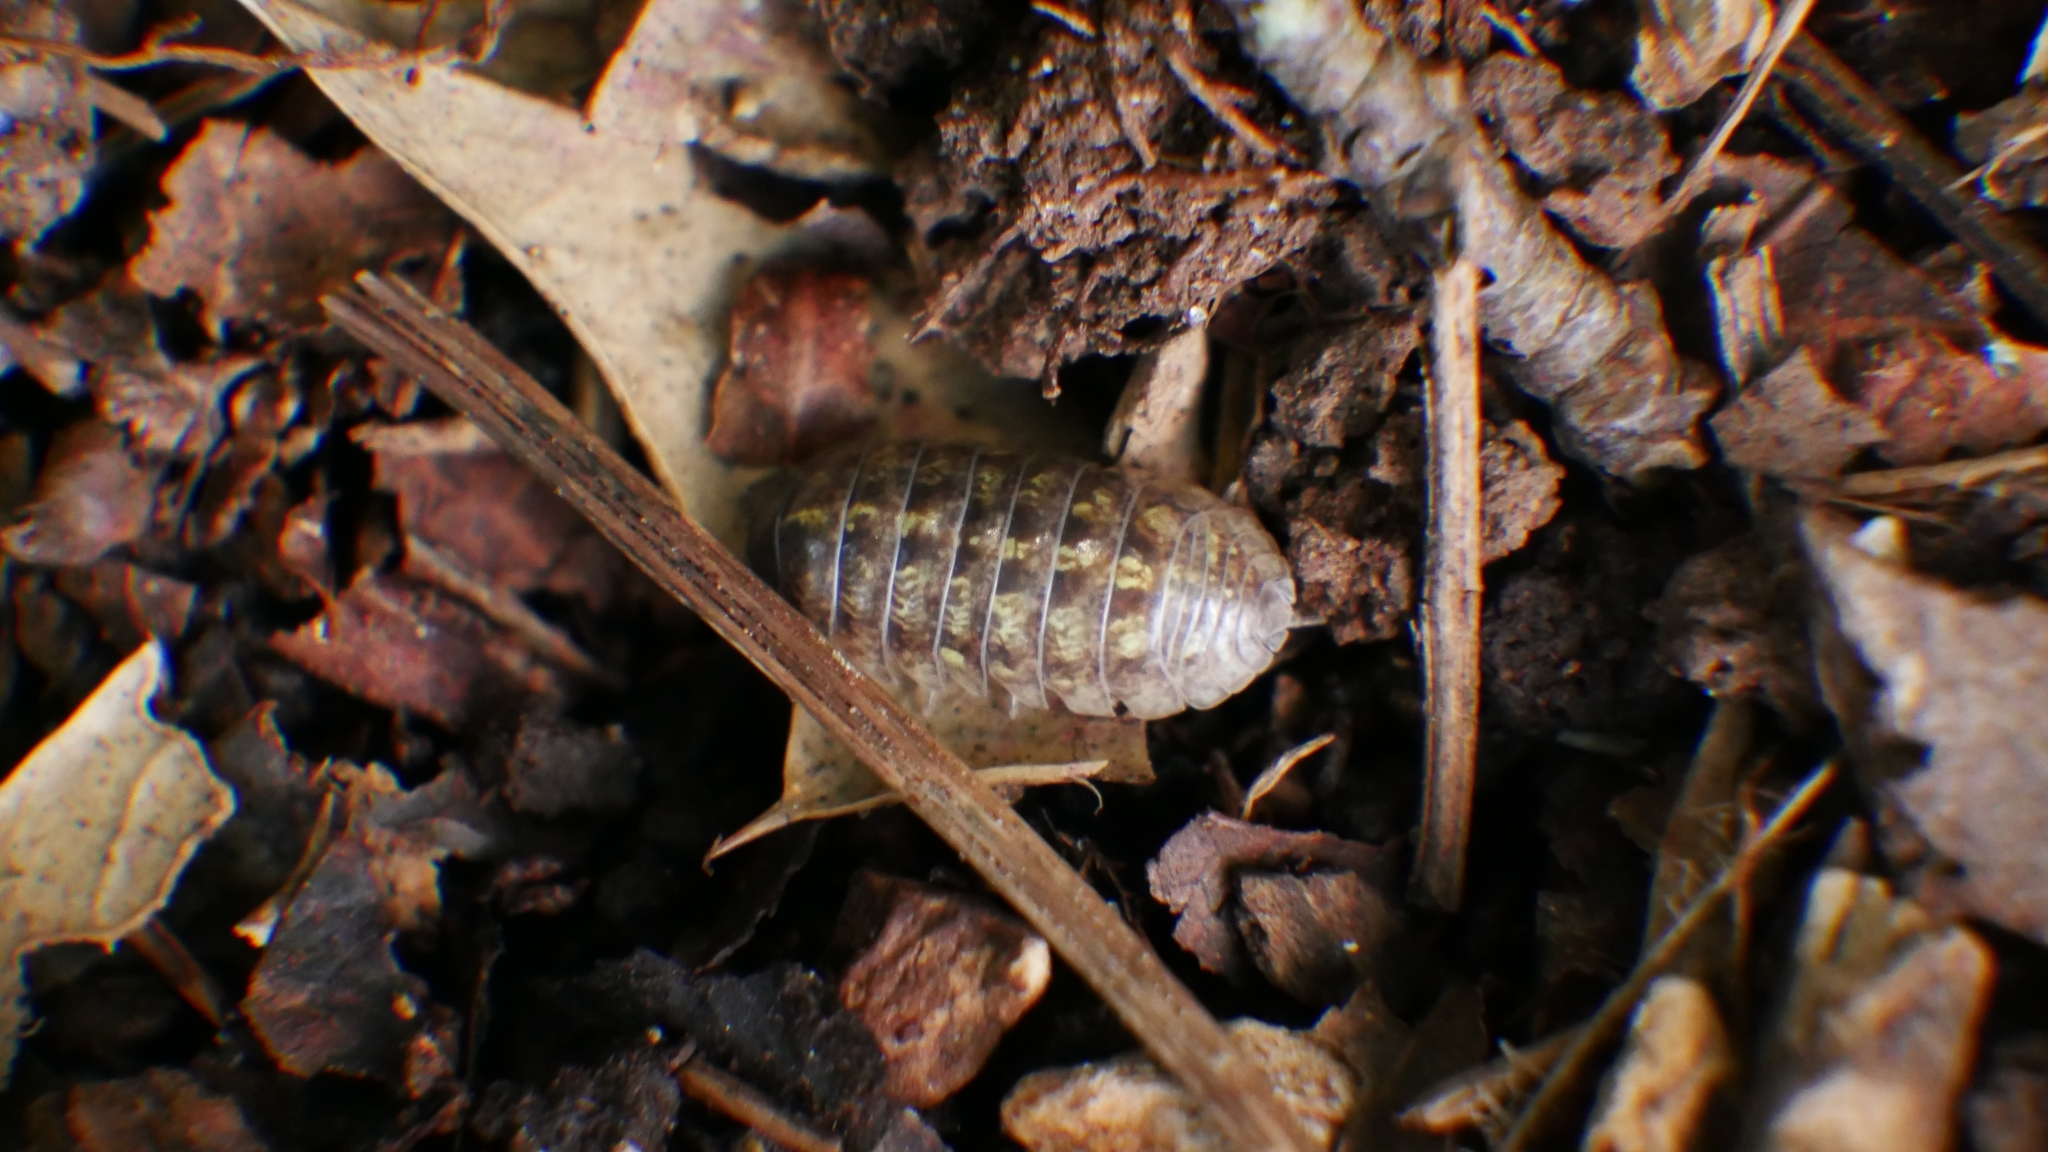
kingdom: Animalia
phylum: Arthropoda
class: Malacostraca
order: Isopoda
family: Armadillidiidae
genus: Armadillidium
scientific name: Armadillidium vulgare
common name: Common pill woodlouse
